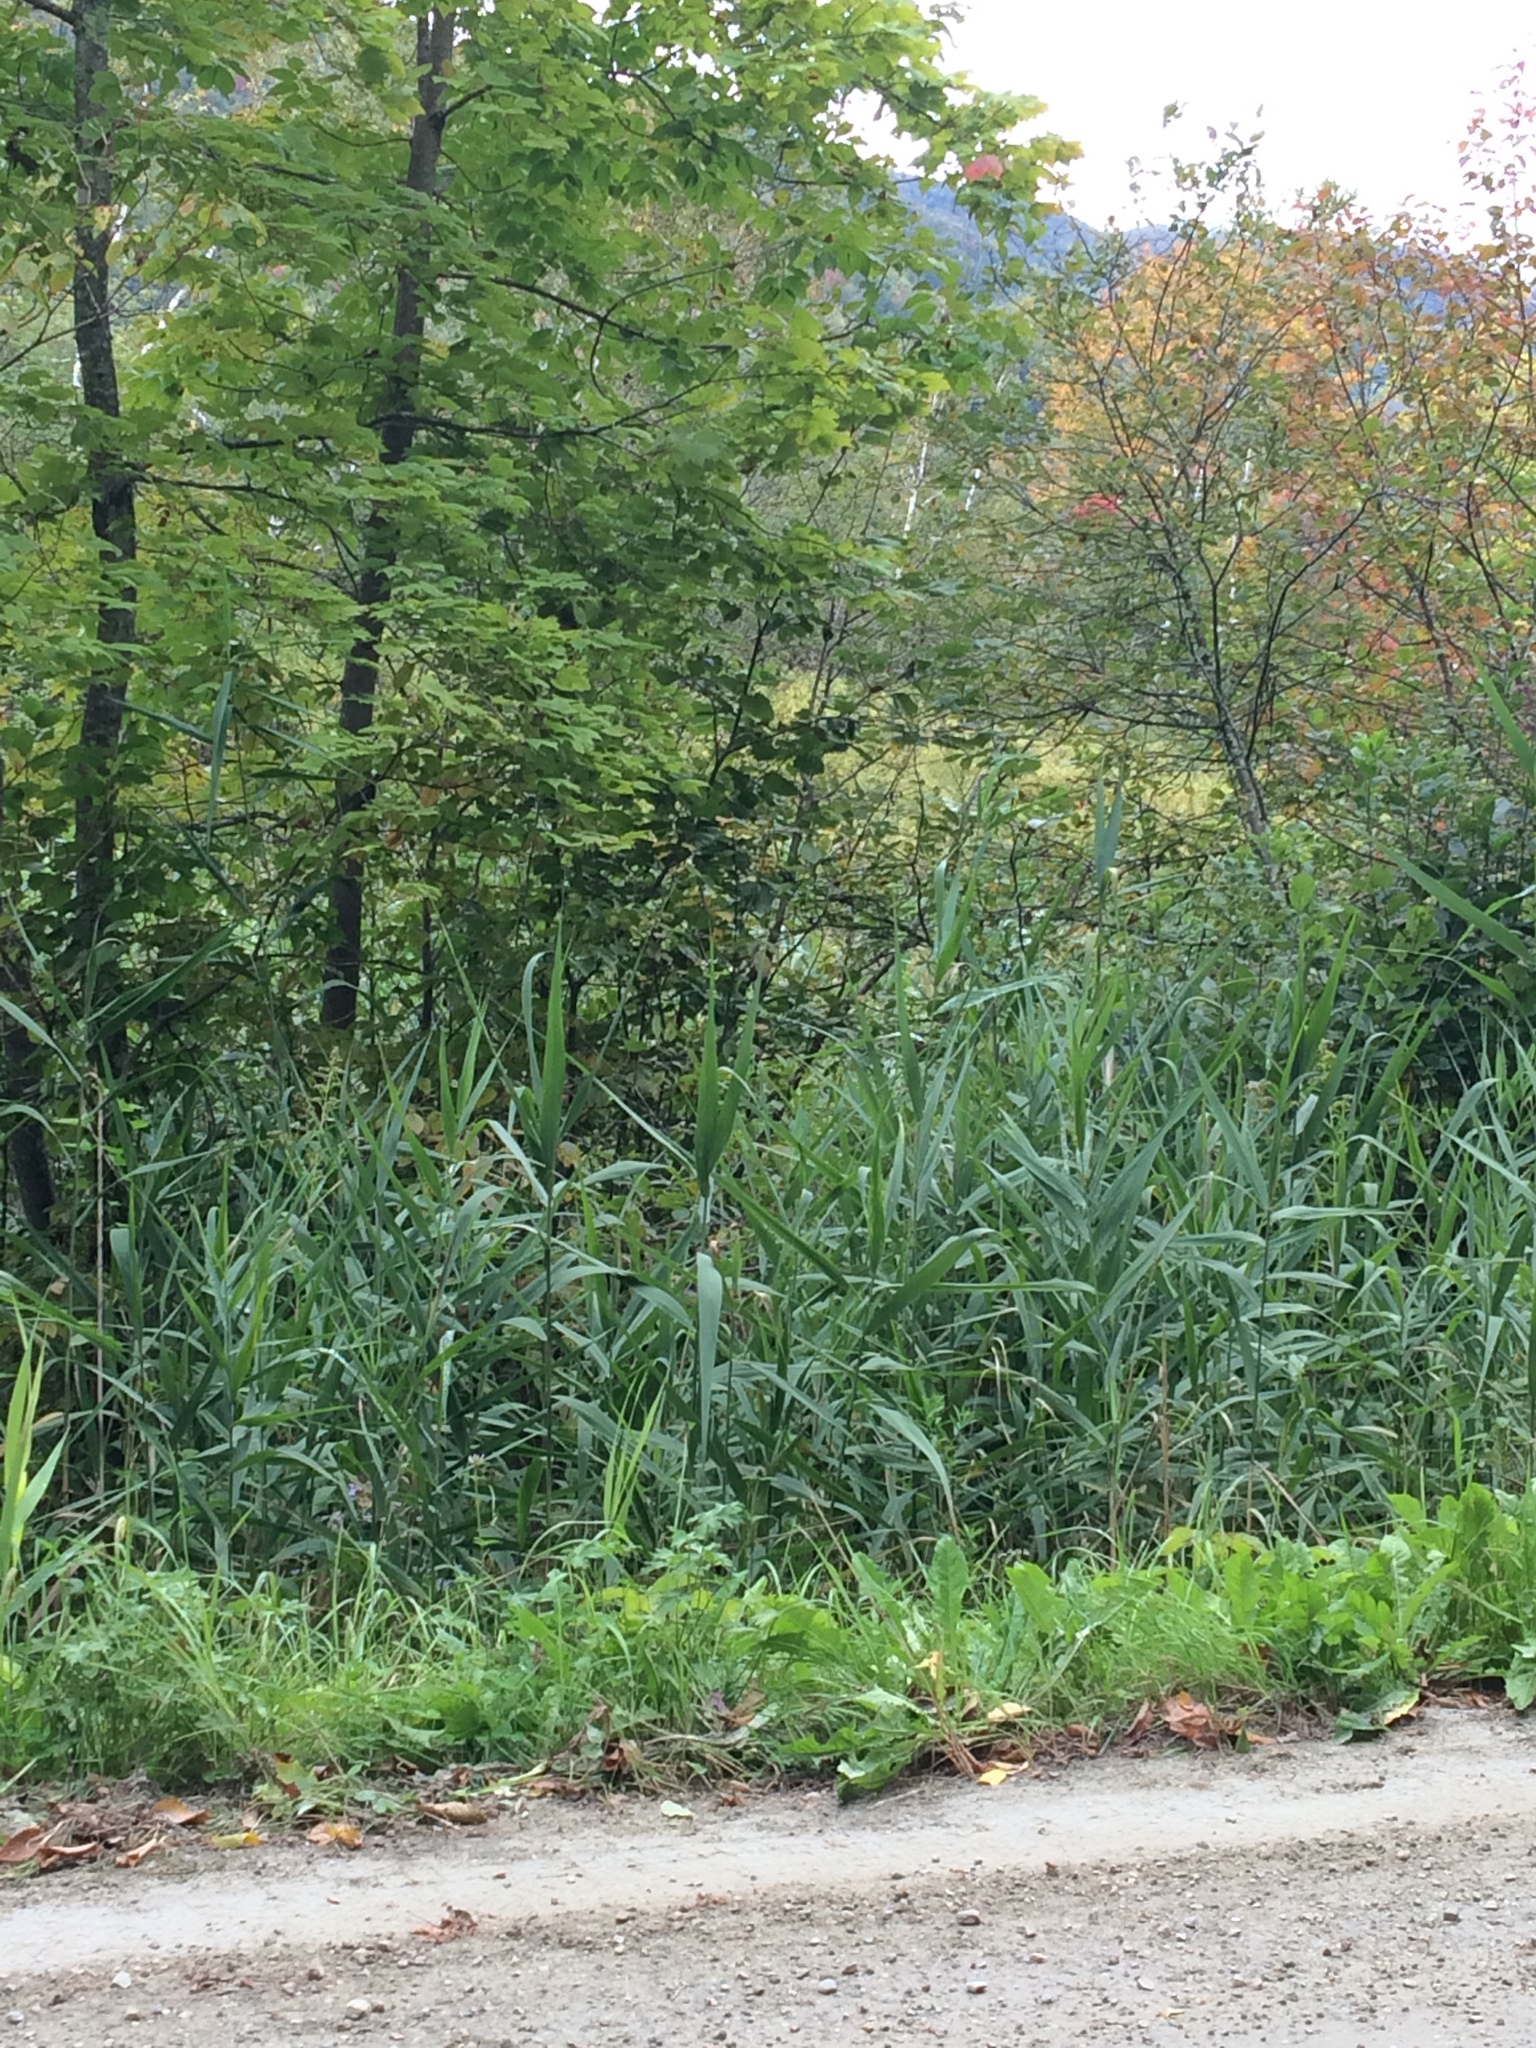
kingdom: Plantae
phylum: Tracheophyta
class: Liliopsida
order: Poales
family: Poaceae
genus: Phragmites
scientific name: Phragmites australis
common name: Common reed
